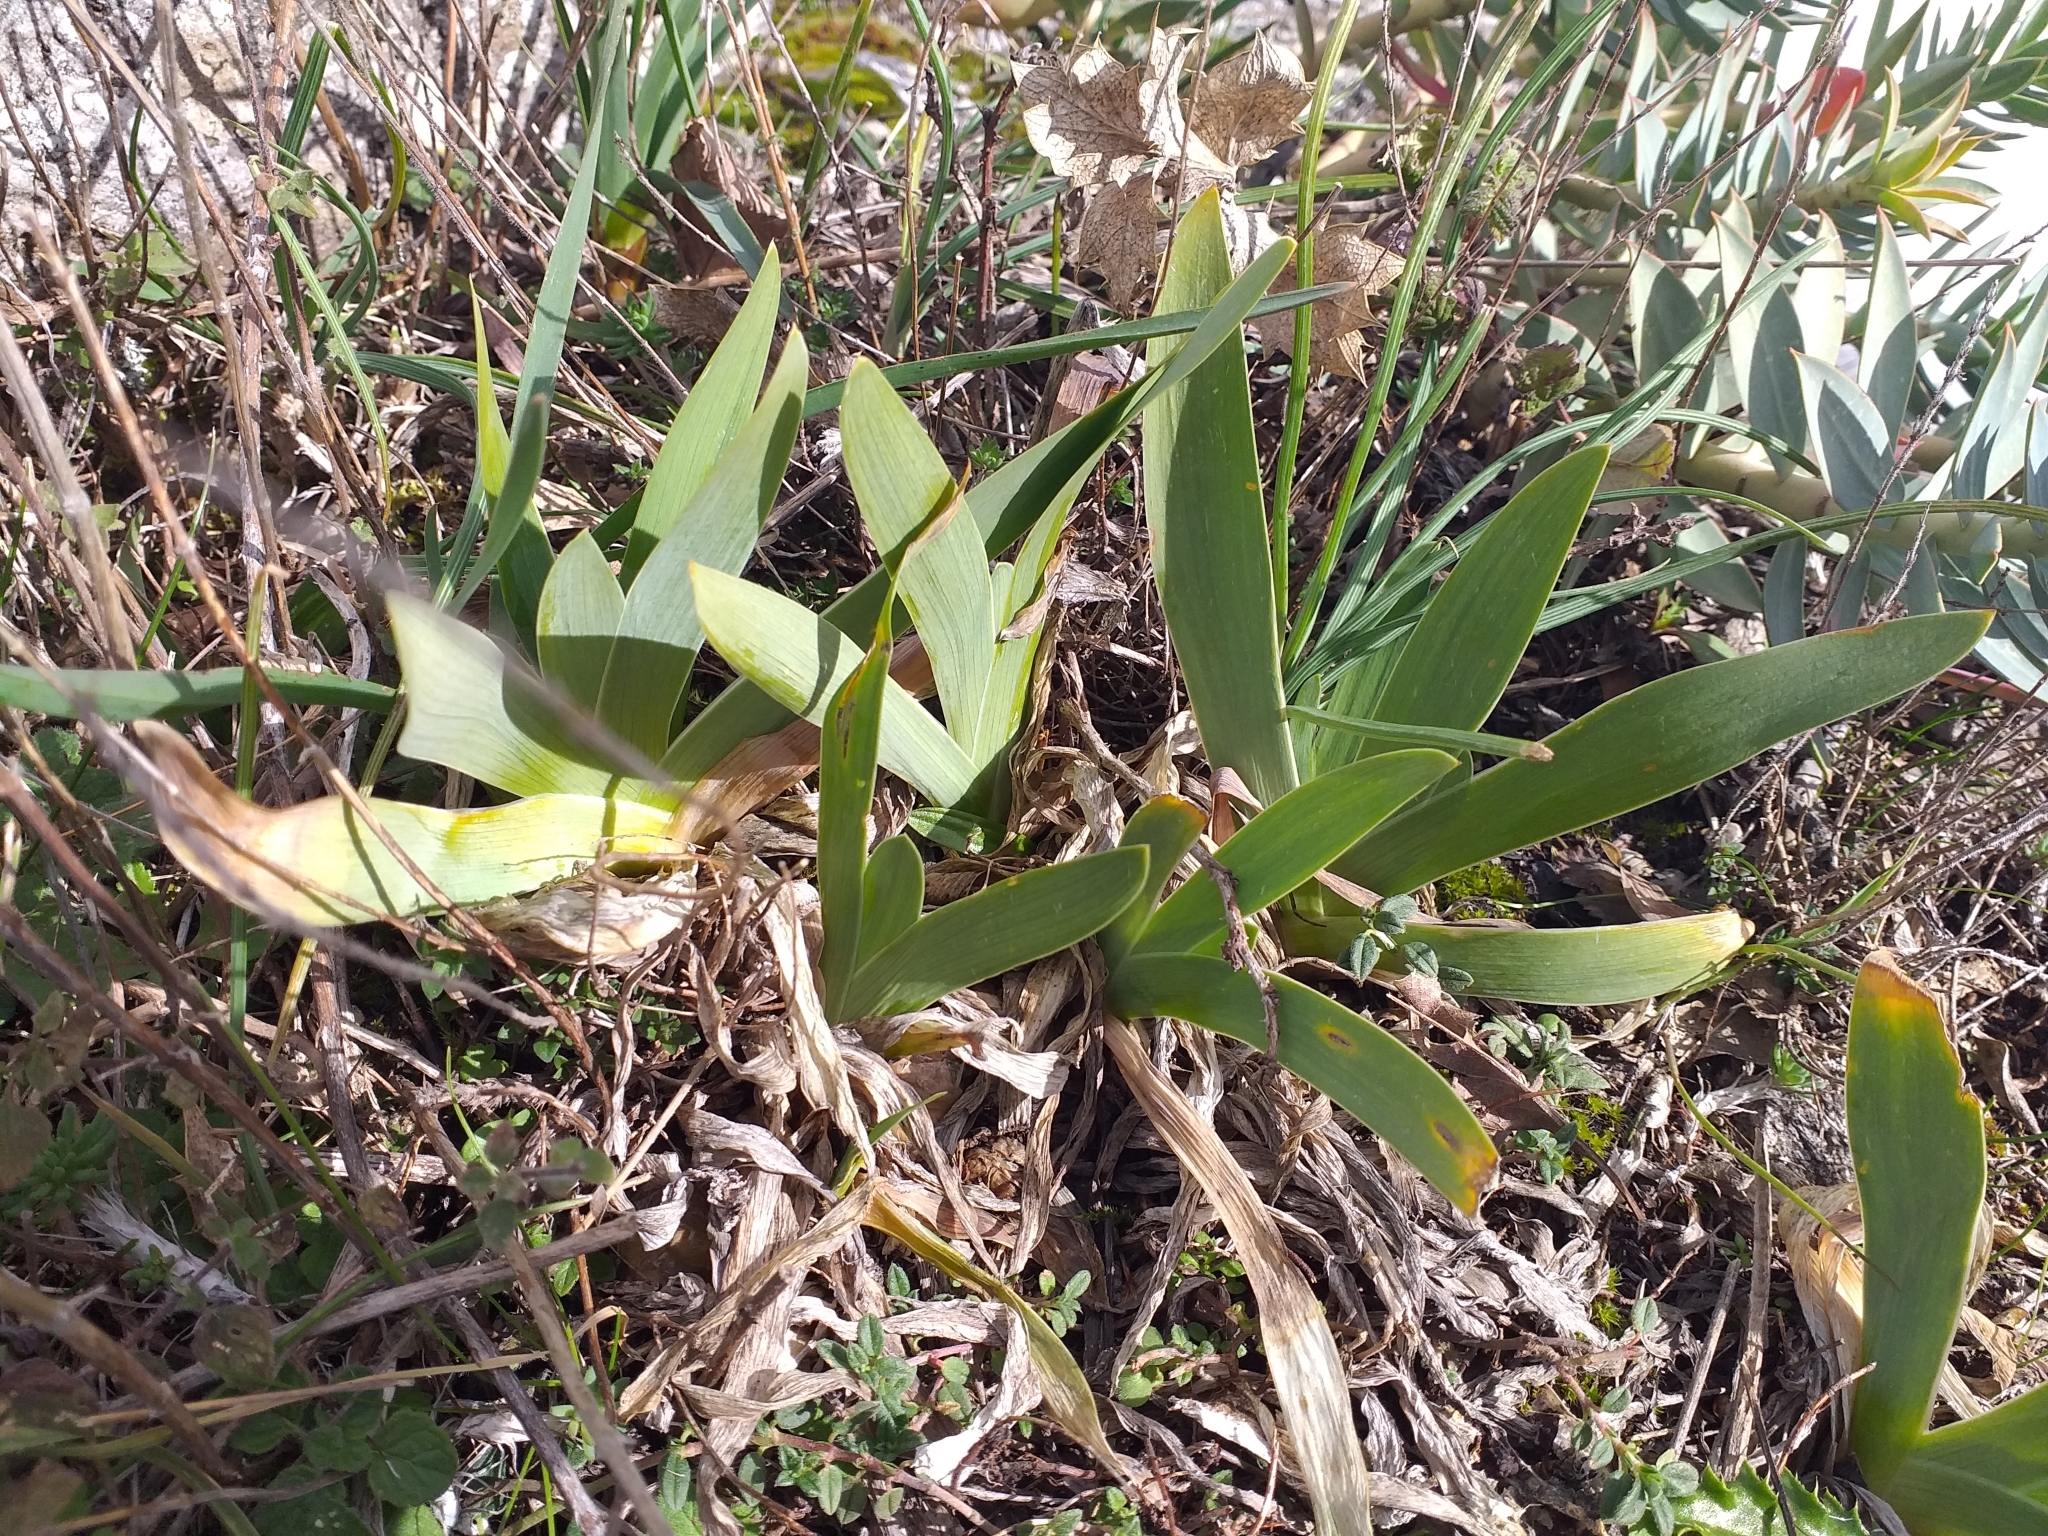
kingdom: Plantae
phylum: Tracheophyta
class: Liliopsida
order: Asparagales
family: Iridaceae
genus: Iris
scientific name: Iris pseudopumila
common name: Southern dwarf iris
